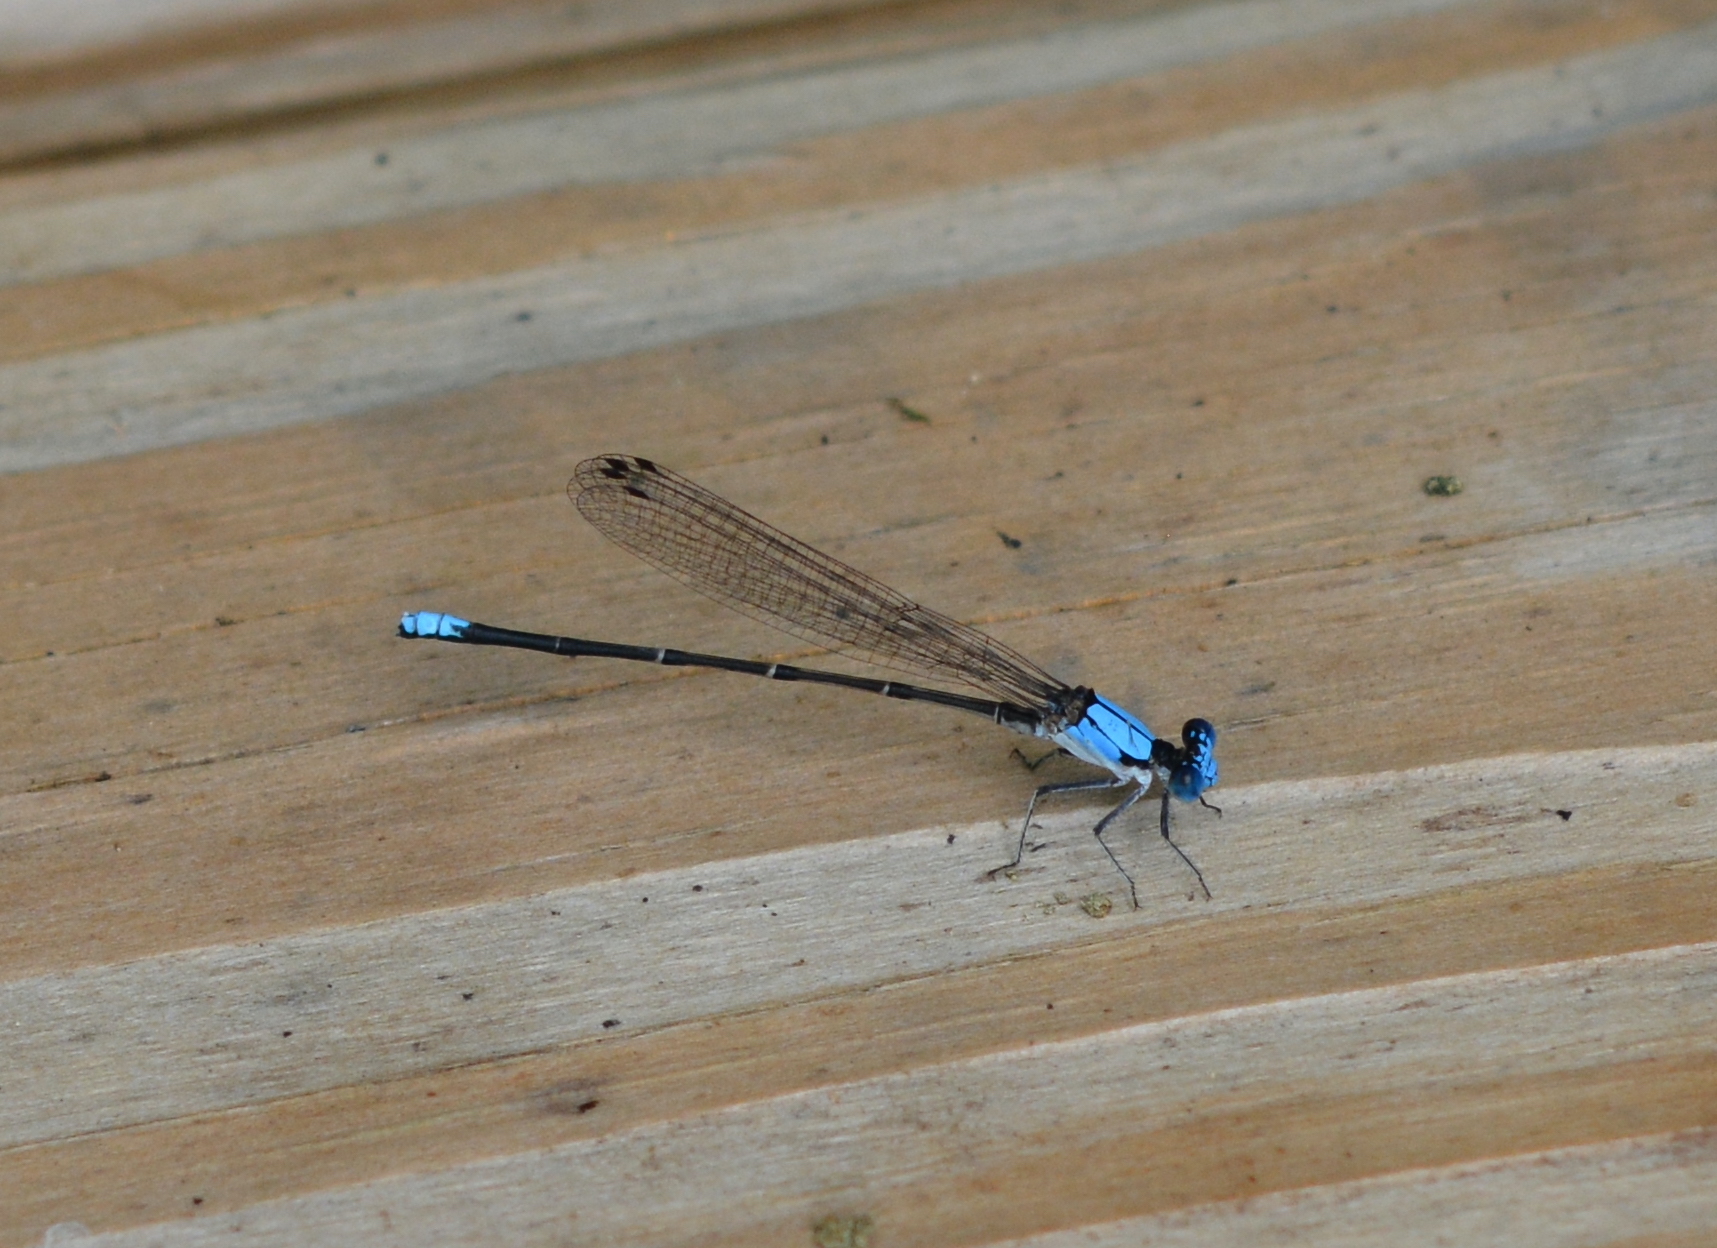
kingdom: Animalia
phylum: Arthropoda
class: Insecta
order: Odonata
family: Coenagrionidae
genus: Argia
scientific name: Argia apicalis
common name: Blue-fronted dancer
